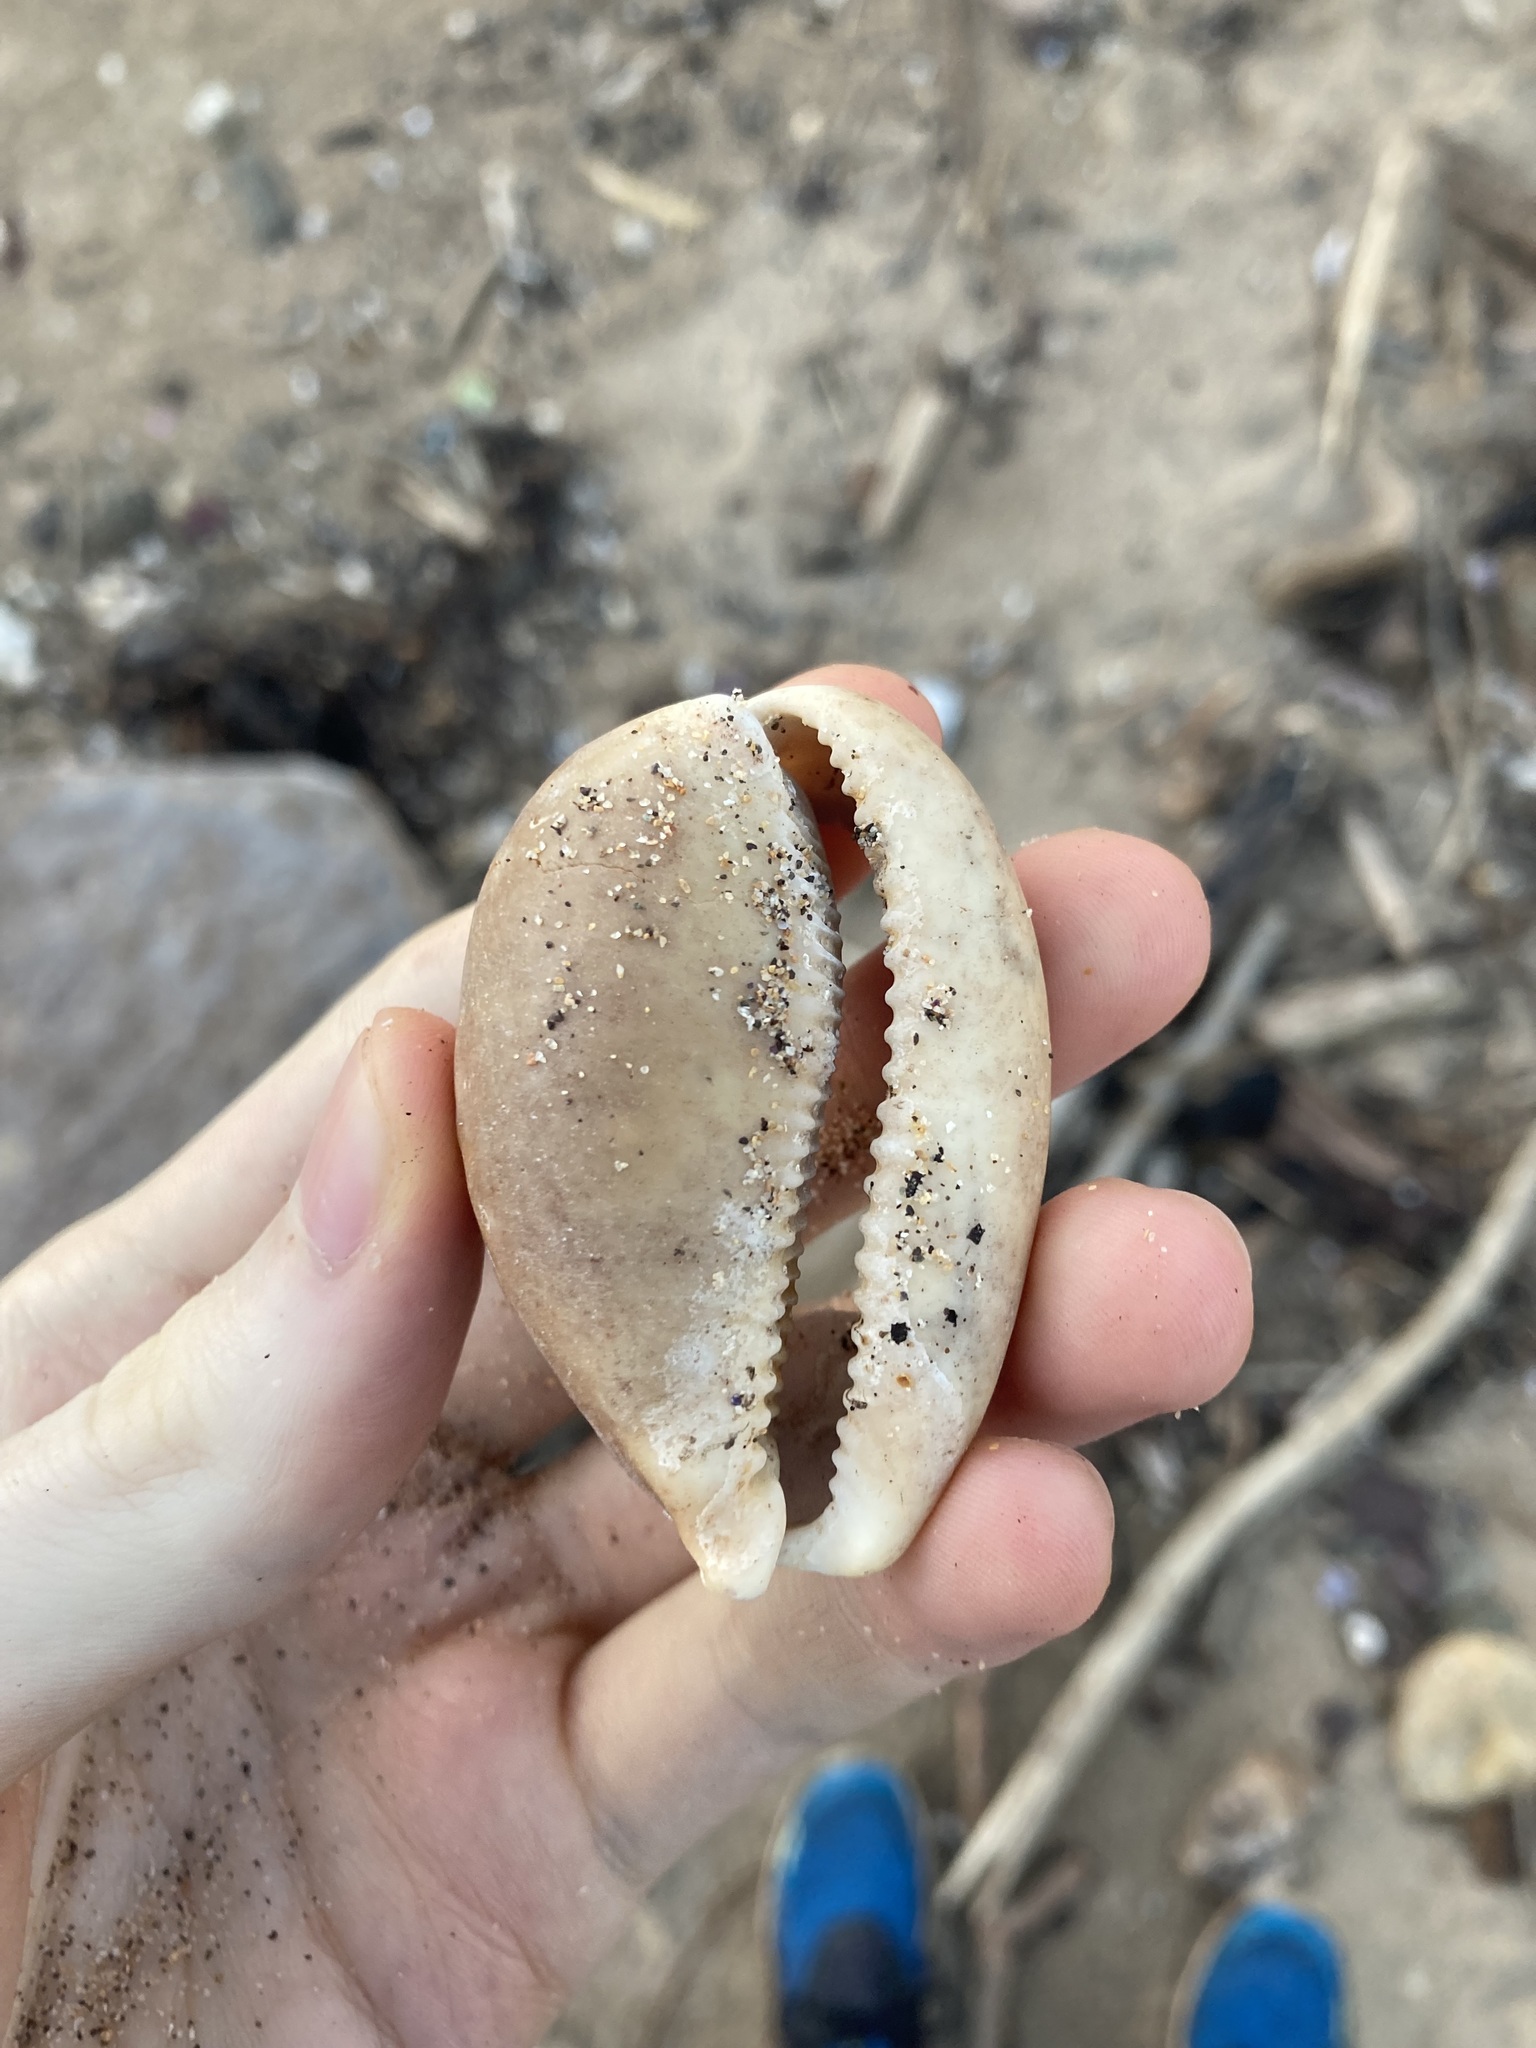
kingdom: Animalia
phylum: Mollusca
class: Gastropoda
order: Littorinimorpha
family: Cypraeidae
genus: Lyncina
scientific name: Lyncina vitellus
